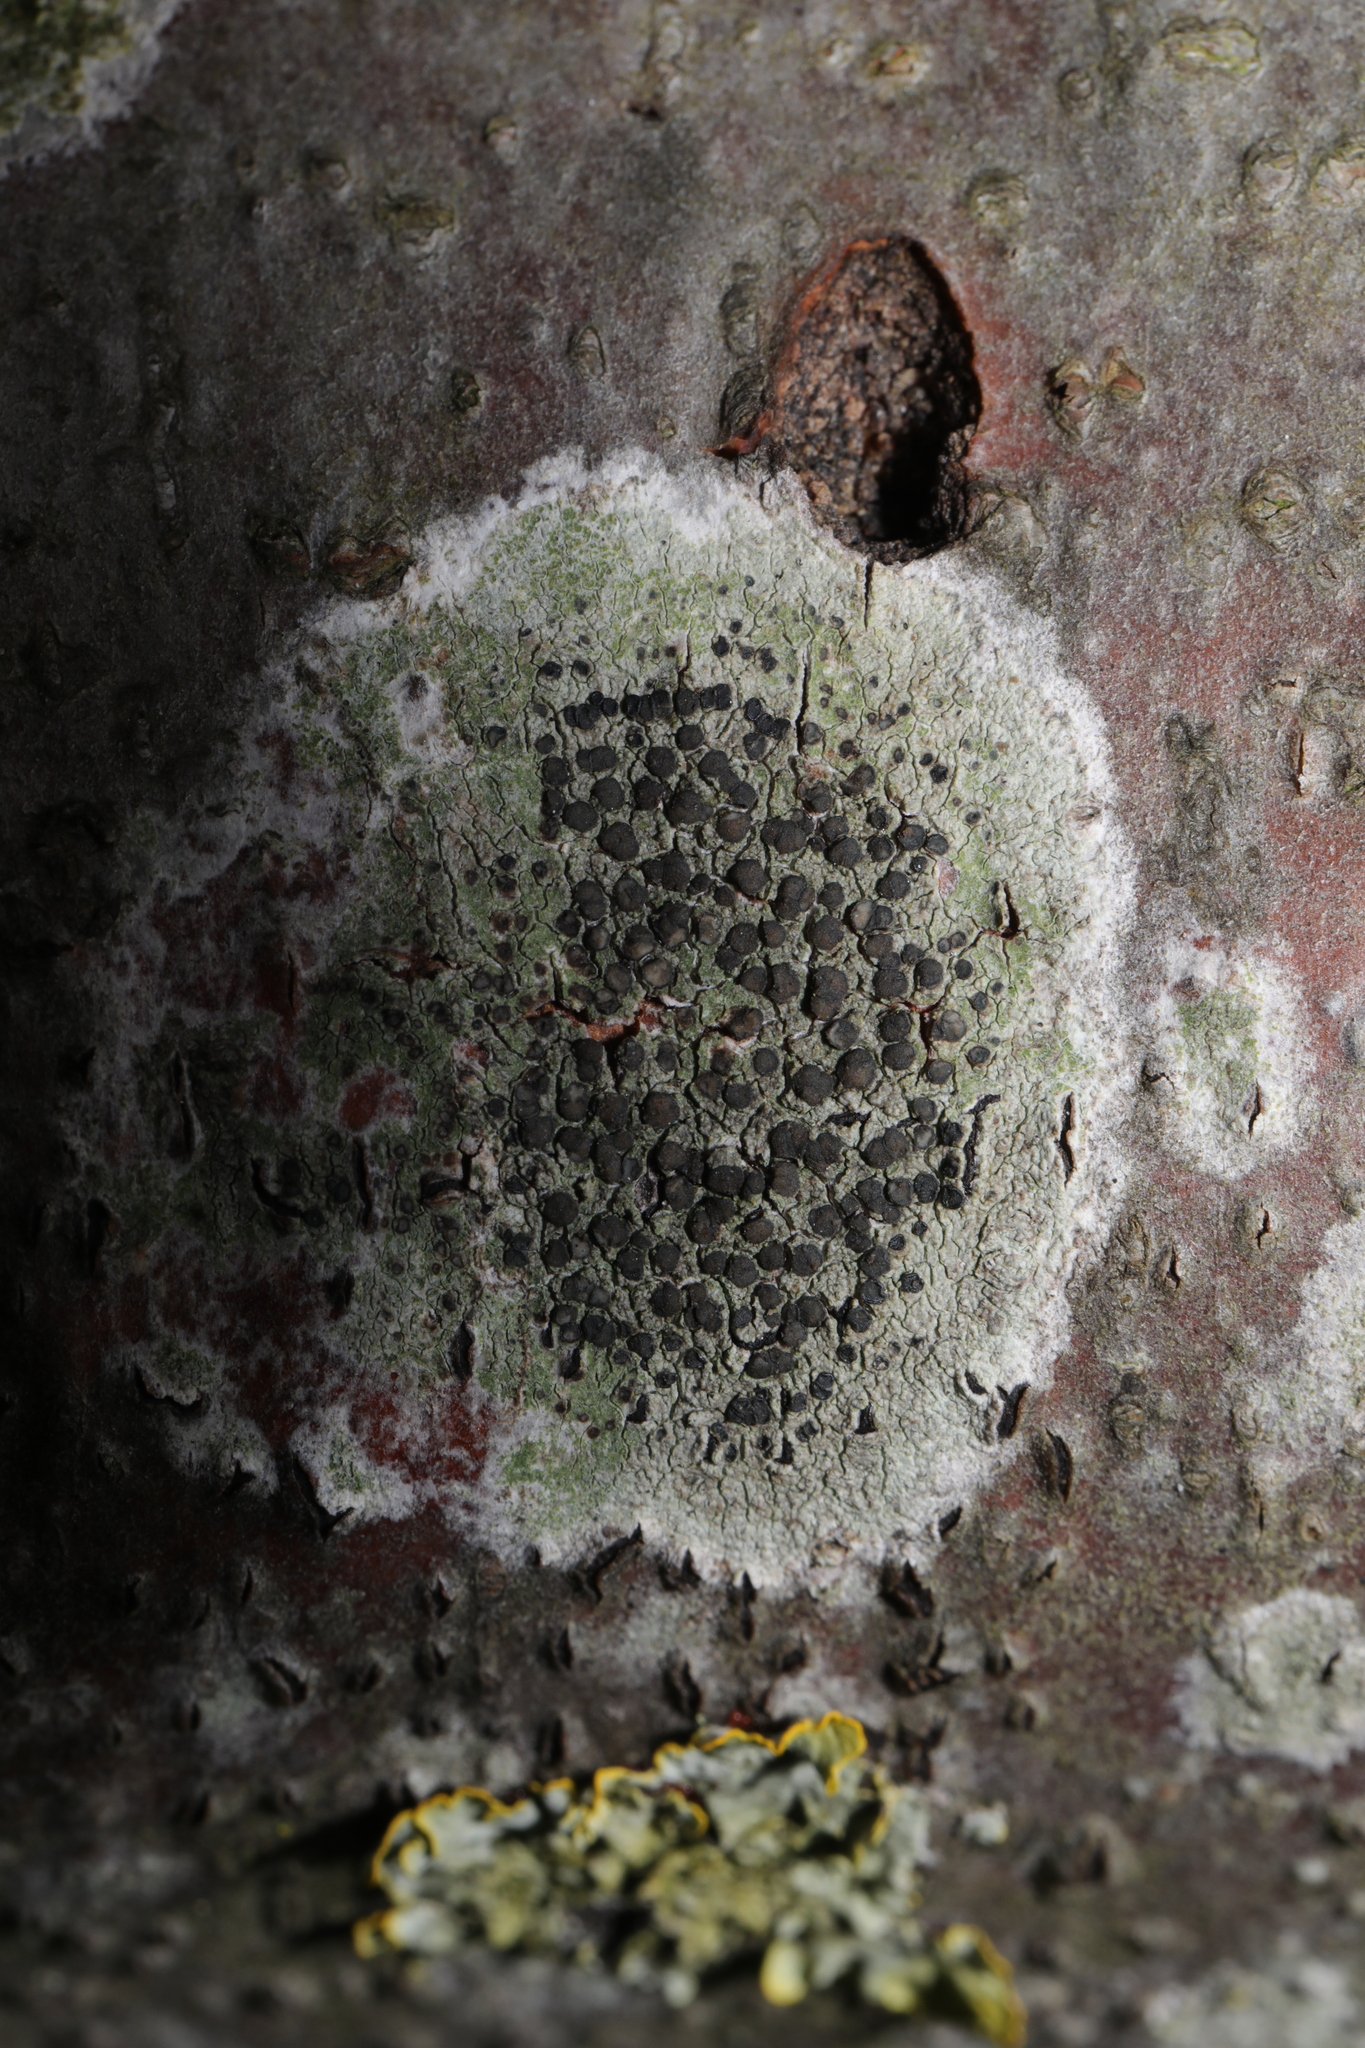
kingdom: Fungi
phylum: Ascomycota
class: Lecanoromycetes
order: Lecanorales
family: Lecanoraceae
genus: Lecidella
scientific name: Lecidella elaeochroma
